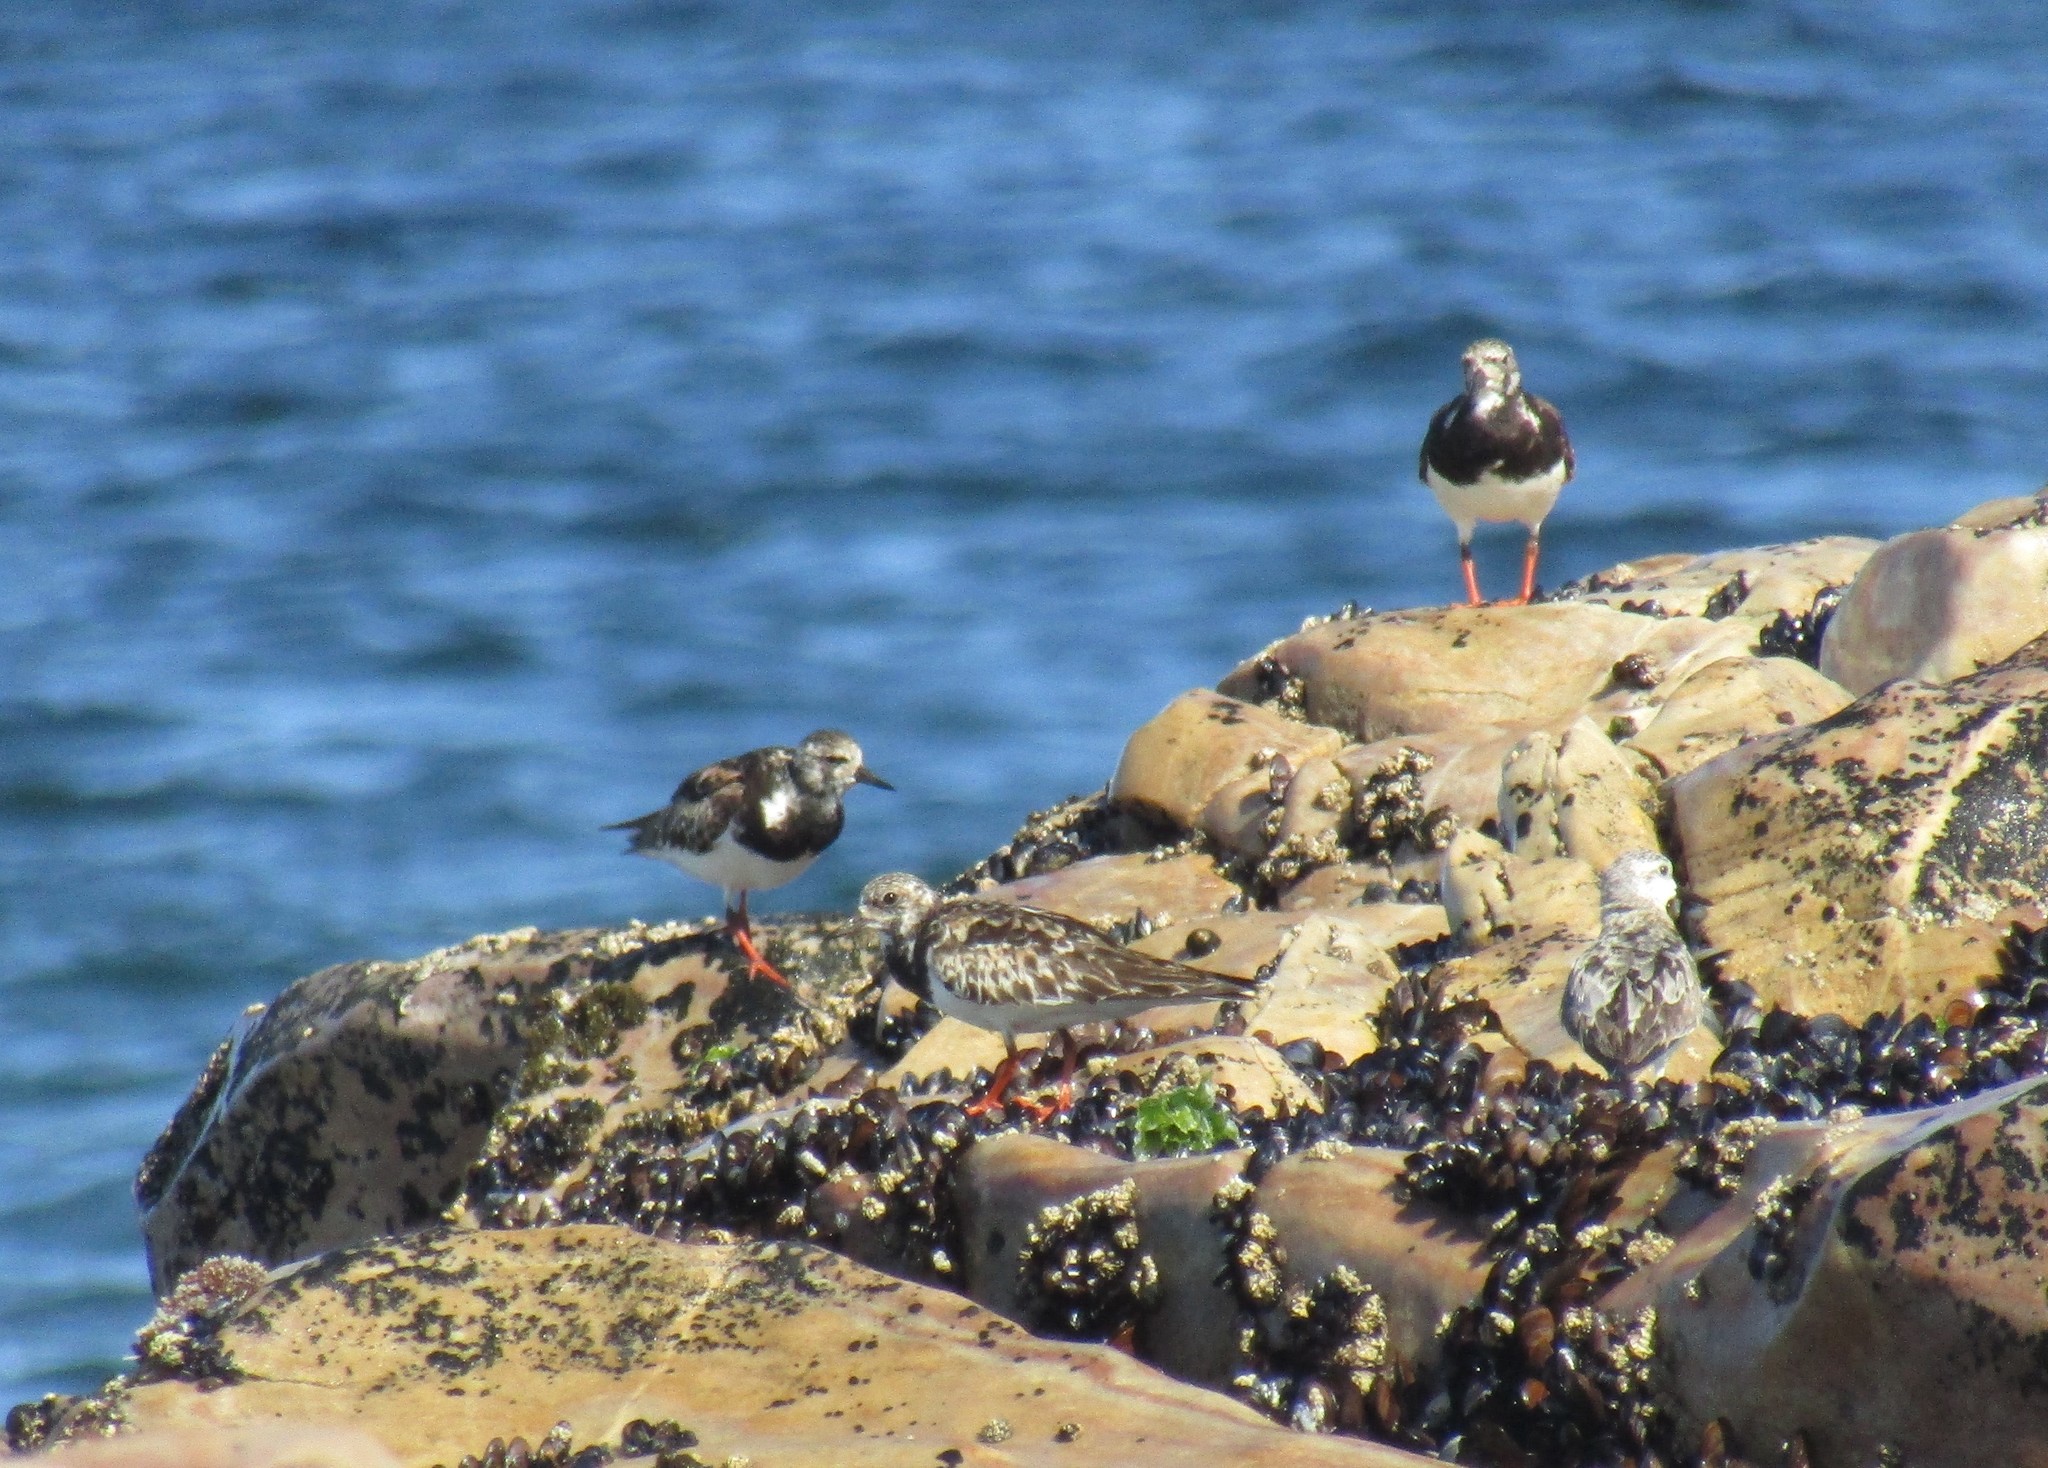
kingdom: Animalia
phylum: Chordata
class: Aves
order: Charadriiformes
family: Scolopacidae
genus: Arenaria
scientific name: Arenaria interpres
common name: Ruddy turnstone
